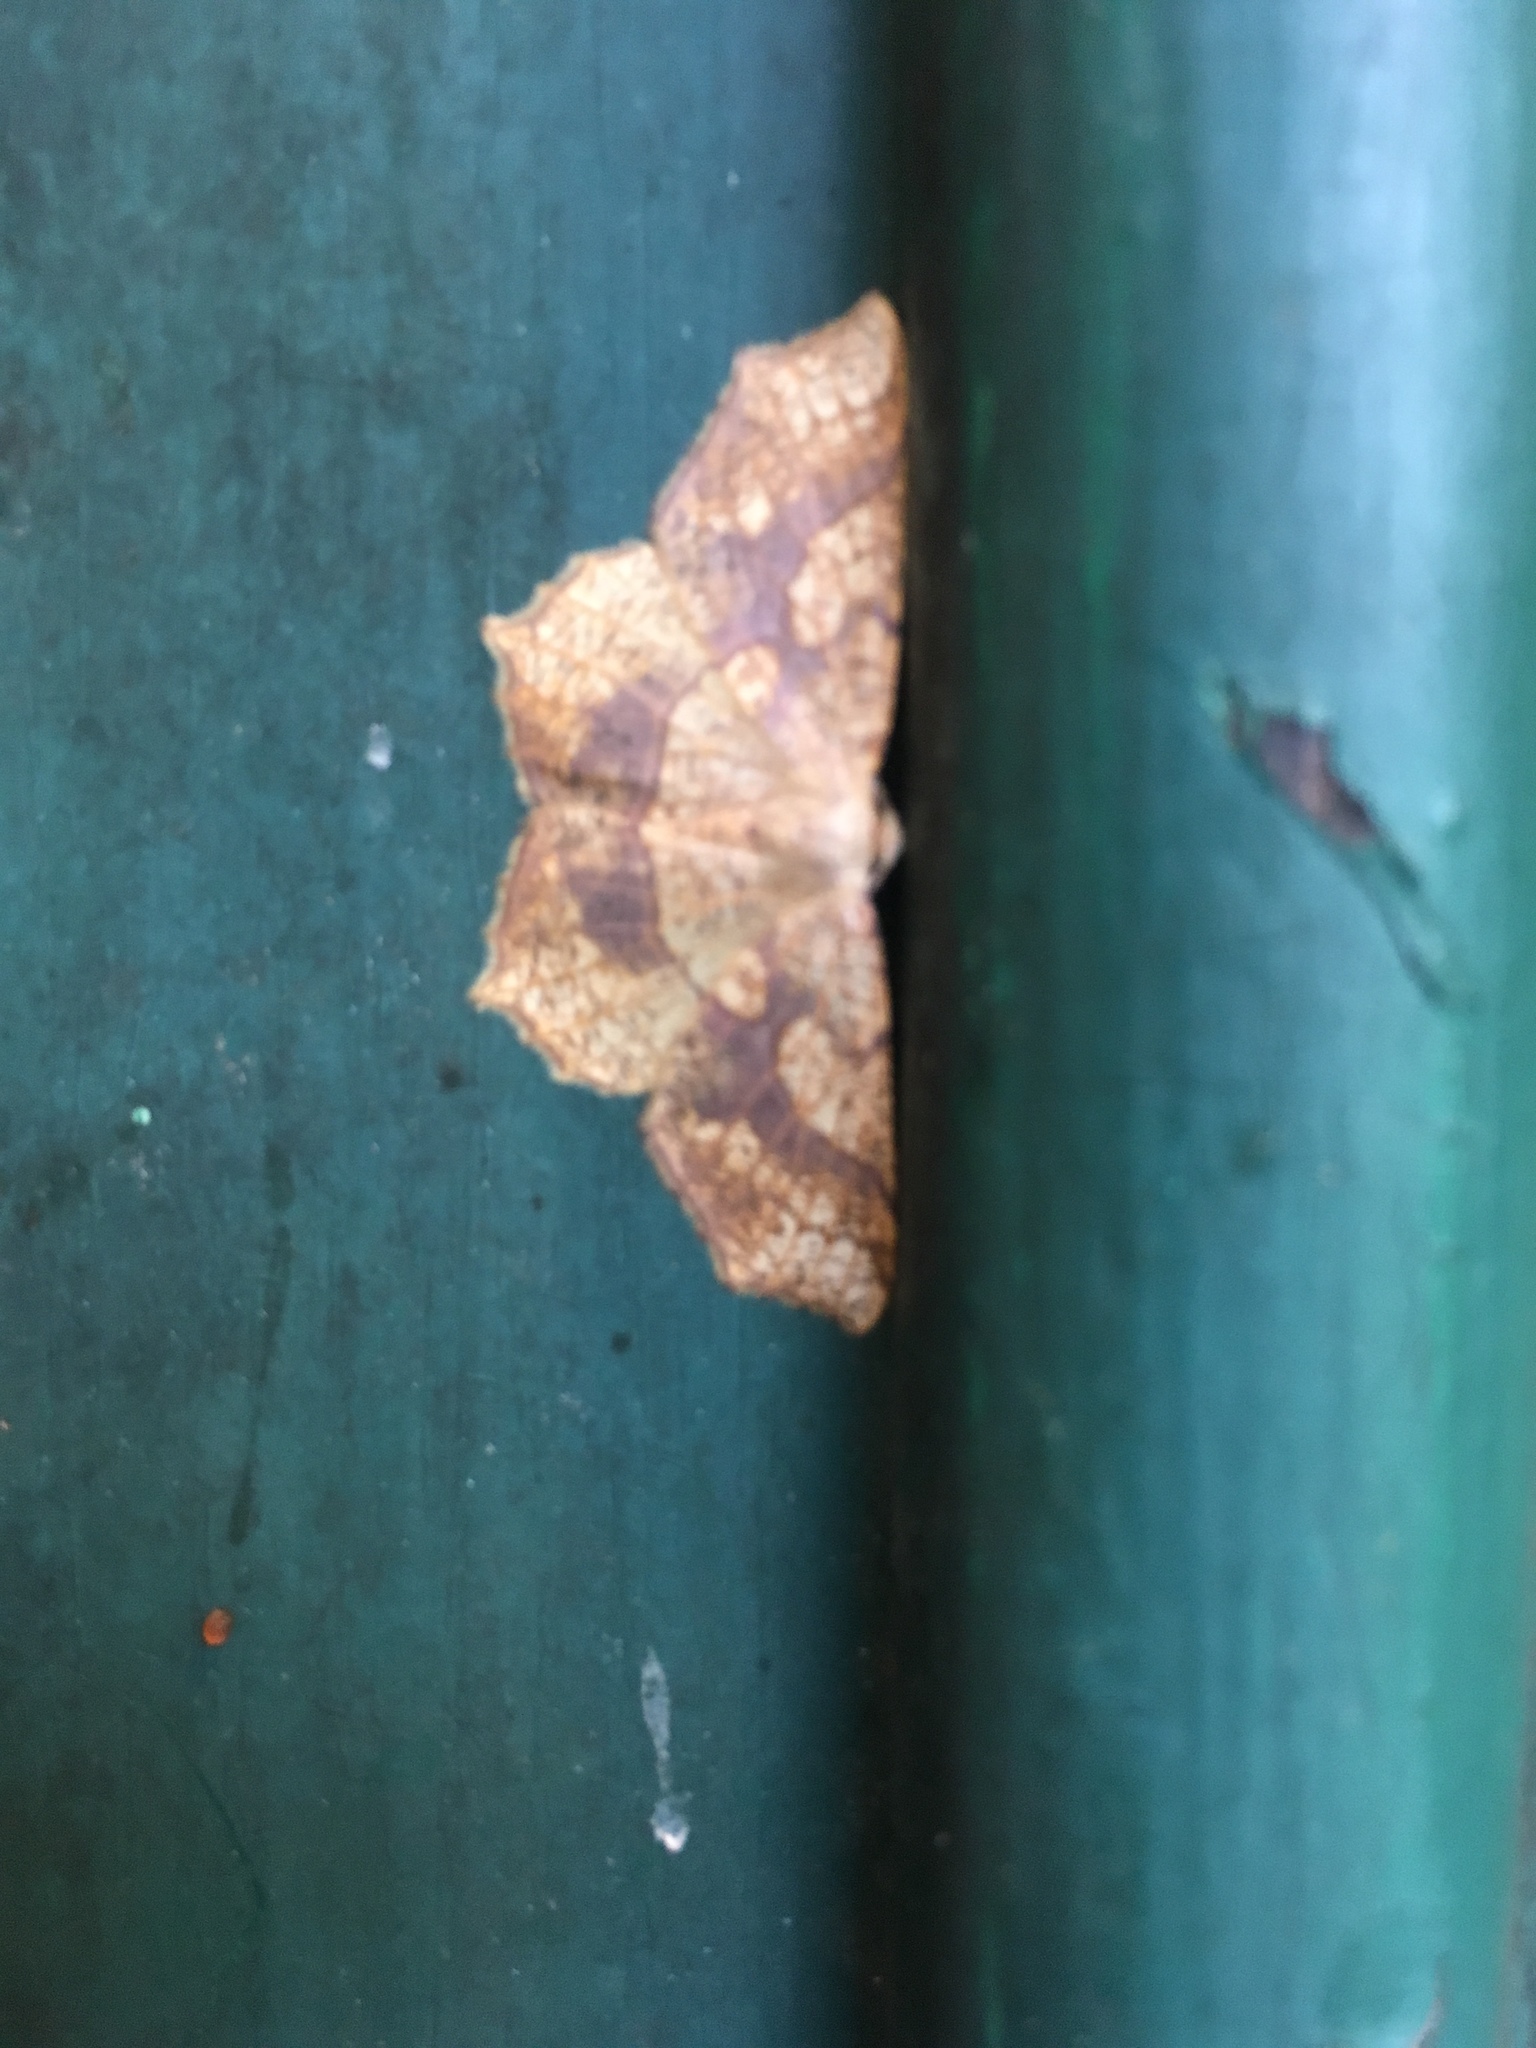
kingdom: Animalia
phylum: Arthropoda
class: Insecta
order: Lepidoptera
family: Geometridae
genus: Besma
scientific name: Besma quercivoraria
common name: Oak besma
